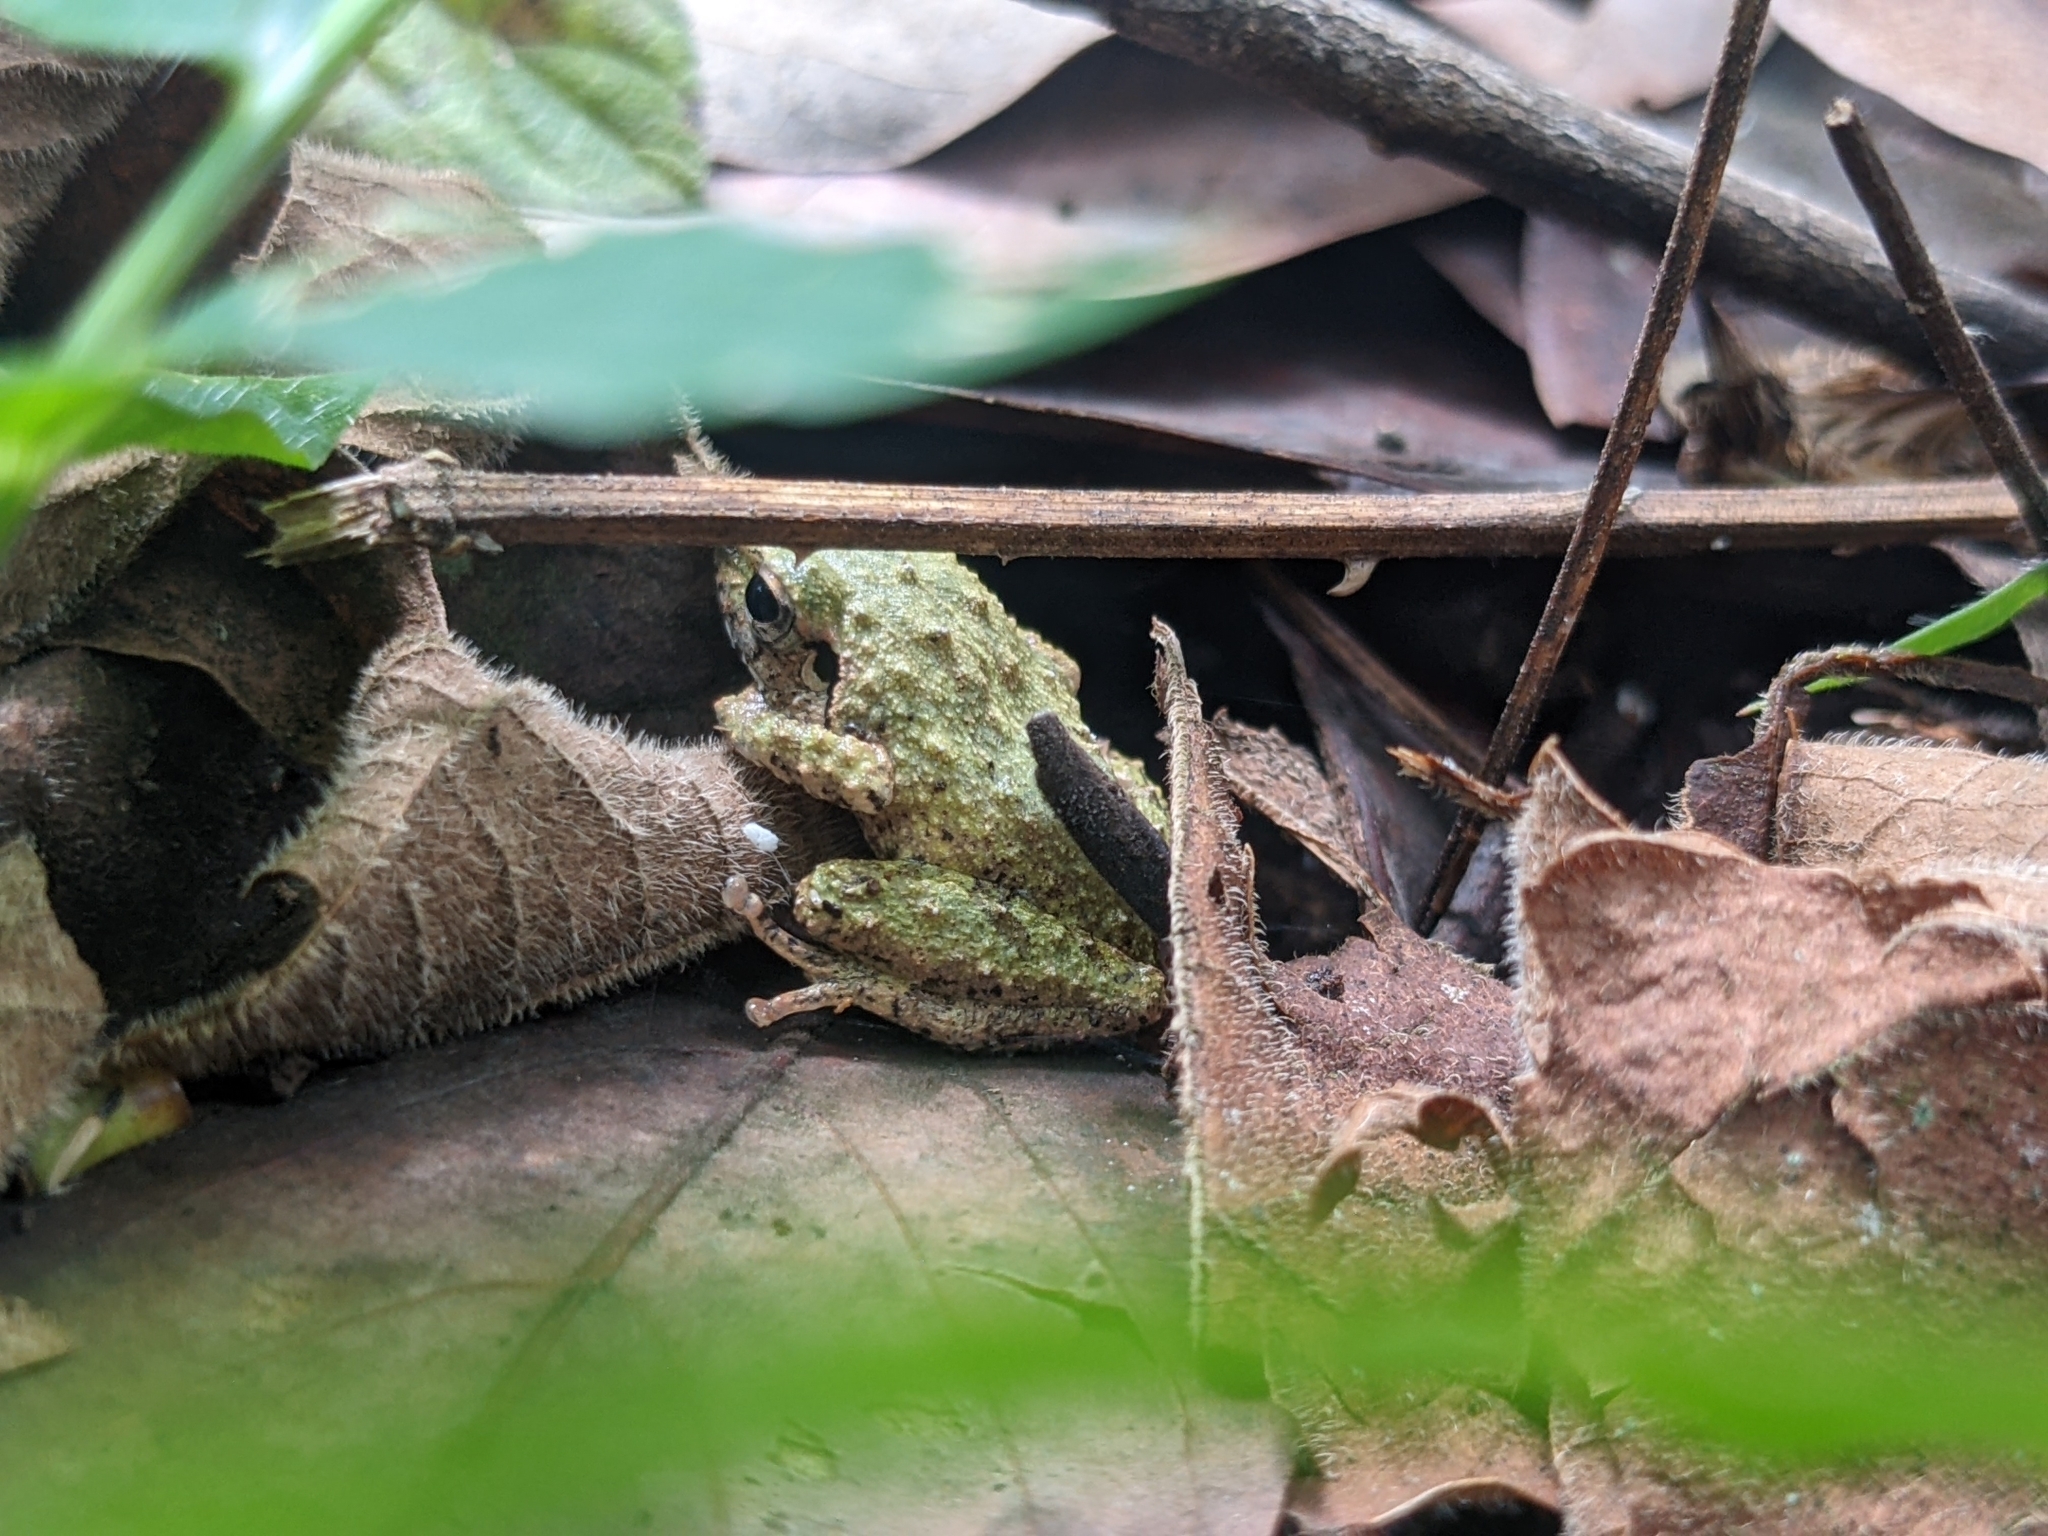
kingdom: Animalia
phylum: Chordata
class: Amphibia
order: Anura
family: Rhacophoridae
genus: Pseudophilautus
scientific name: Pseudophilautus wynaadensis
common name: Dark-eared bush frog
